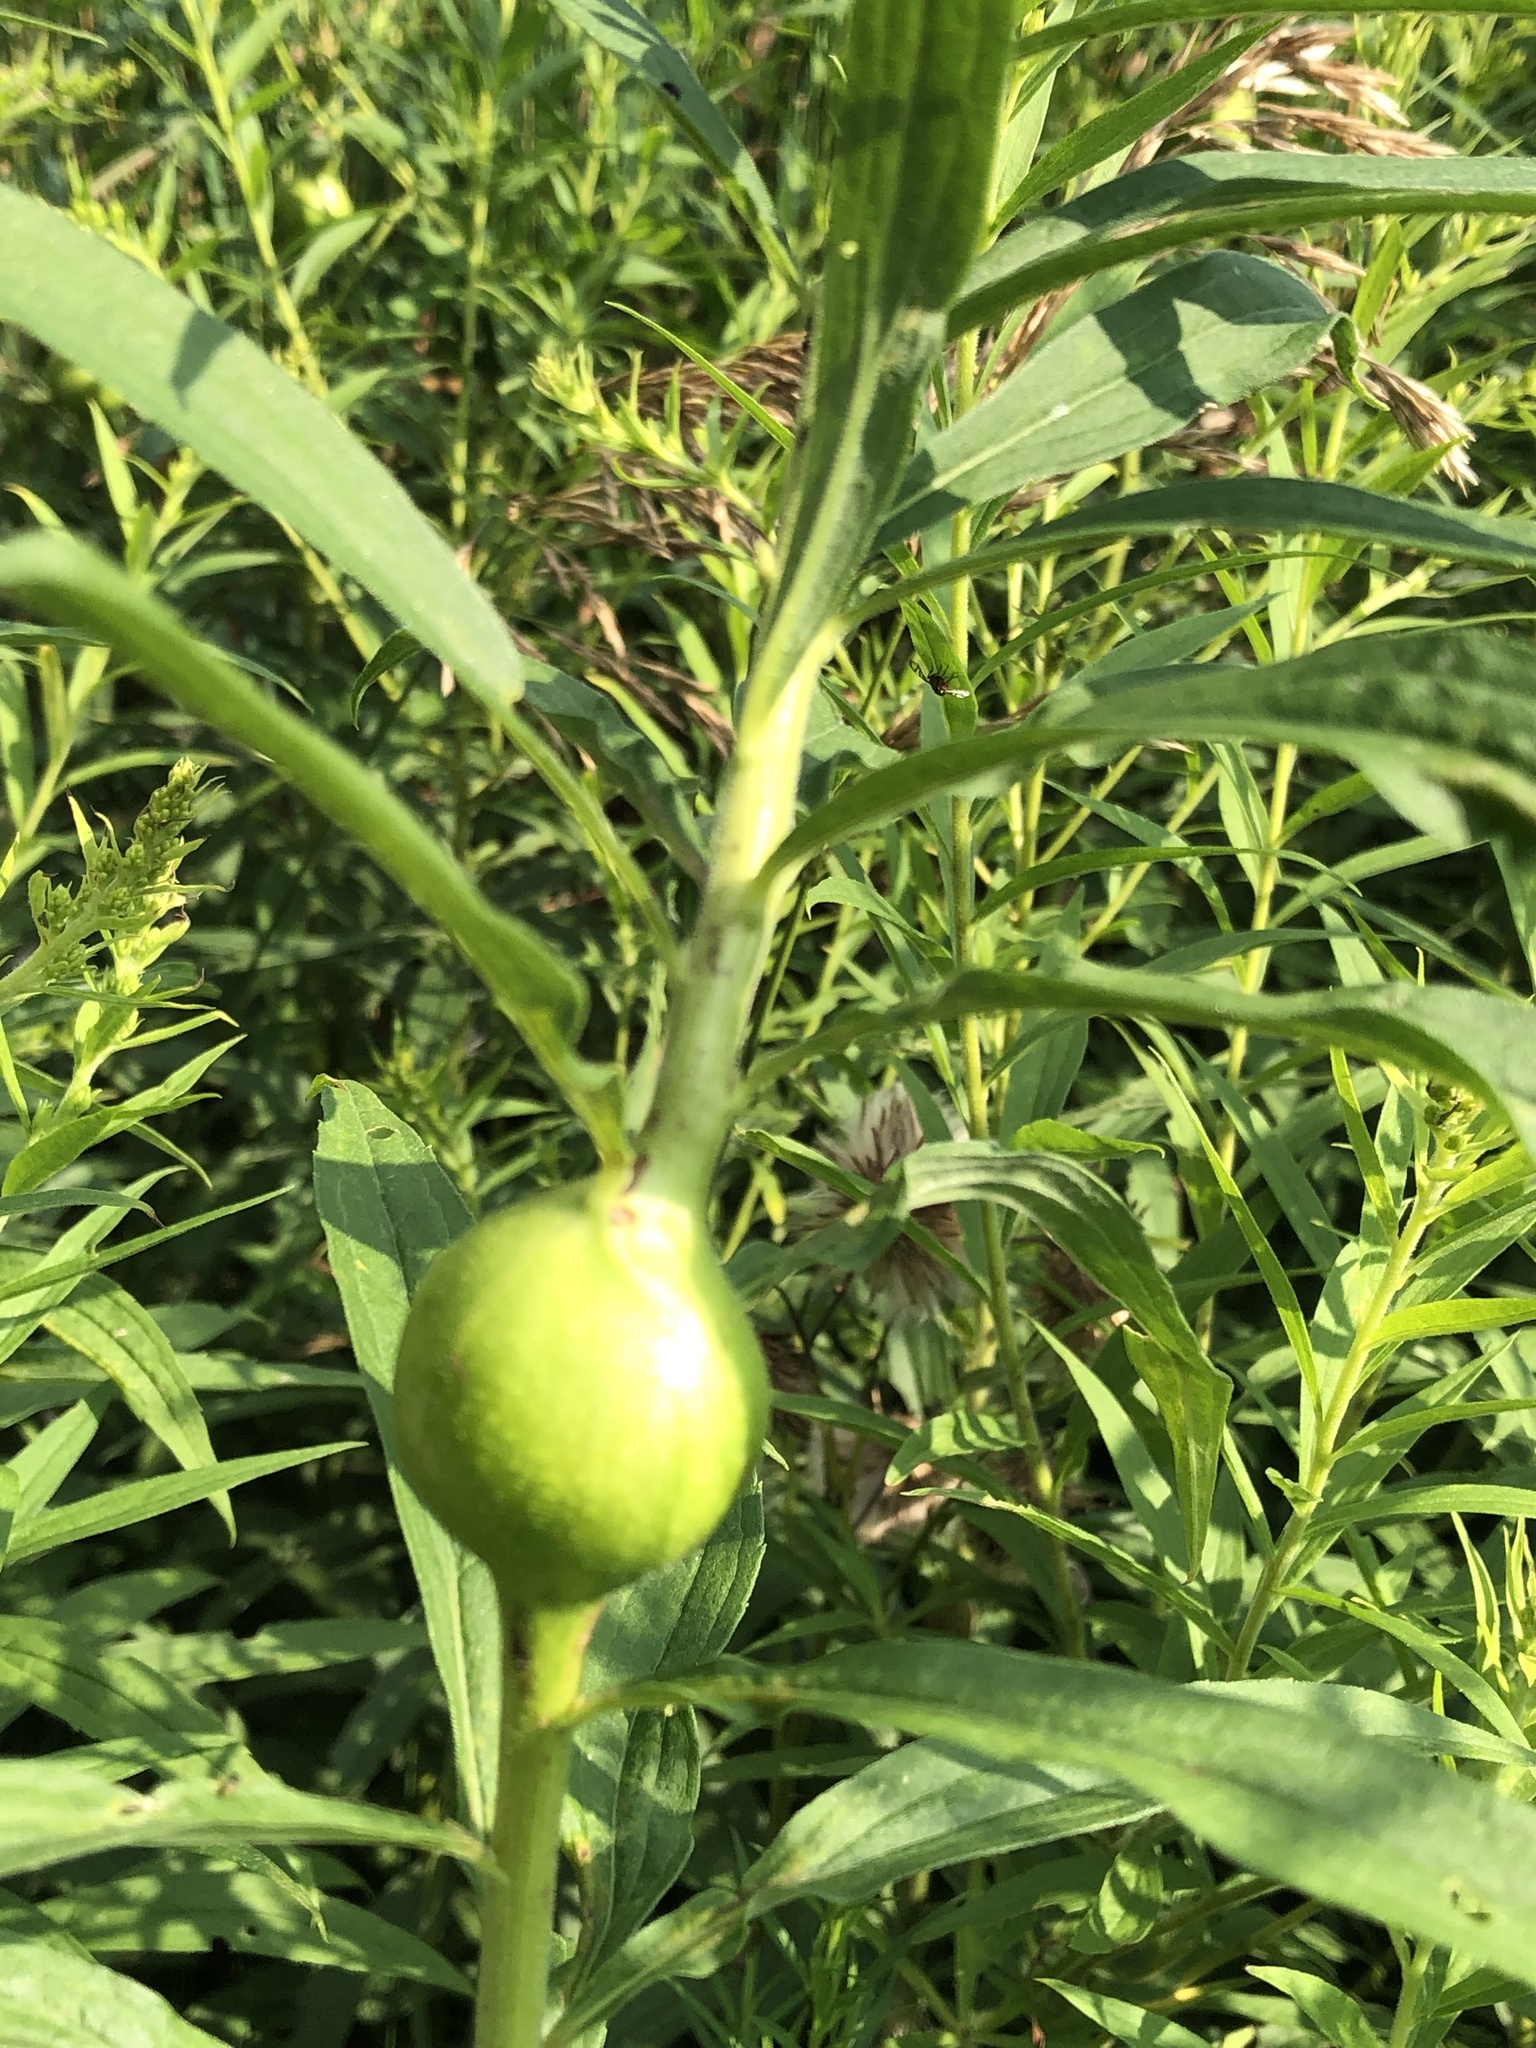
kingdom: Animalia
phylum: Arthropoda
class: Insecta
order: Diptera
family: Tephritidae
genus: Eurosta
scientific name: Eurosta solidaginis
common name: Goldenrod gall fly
